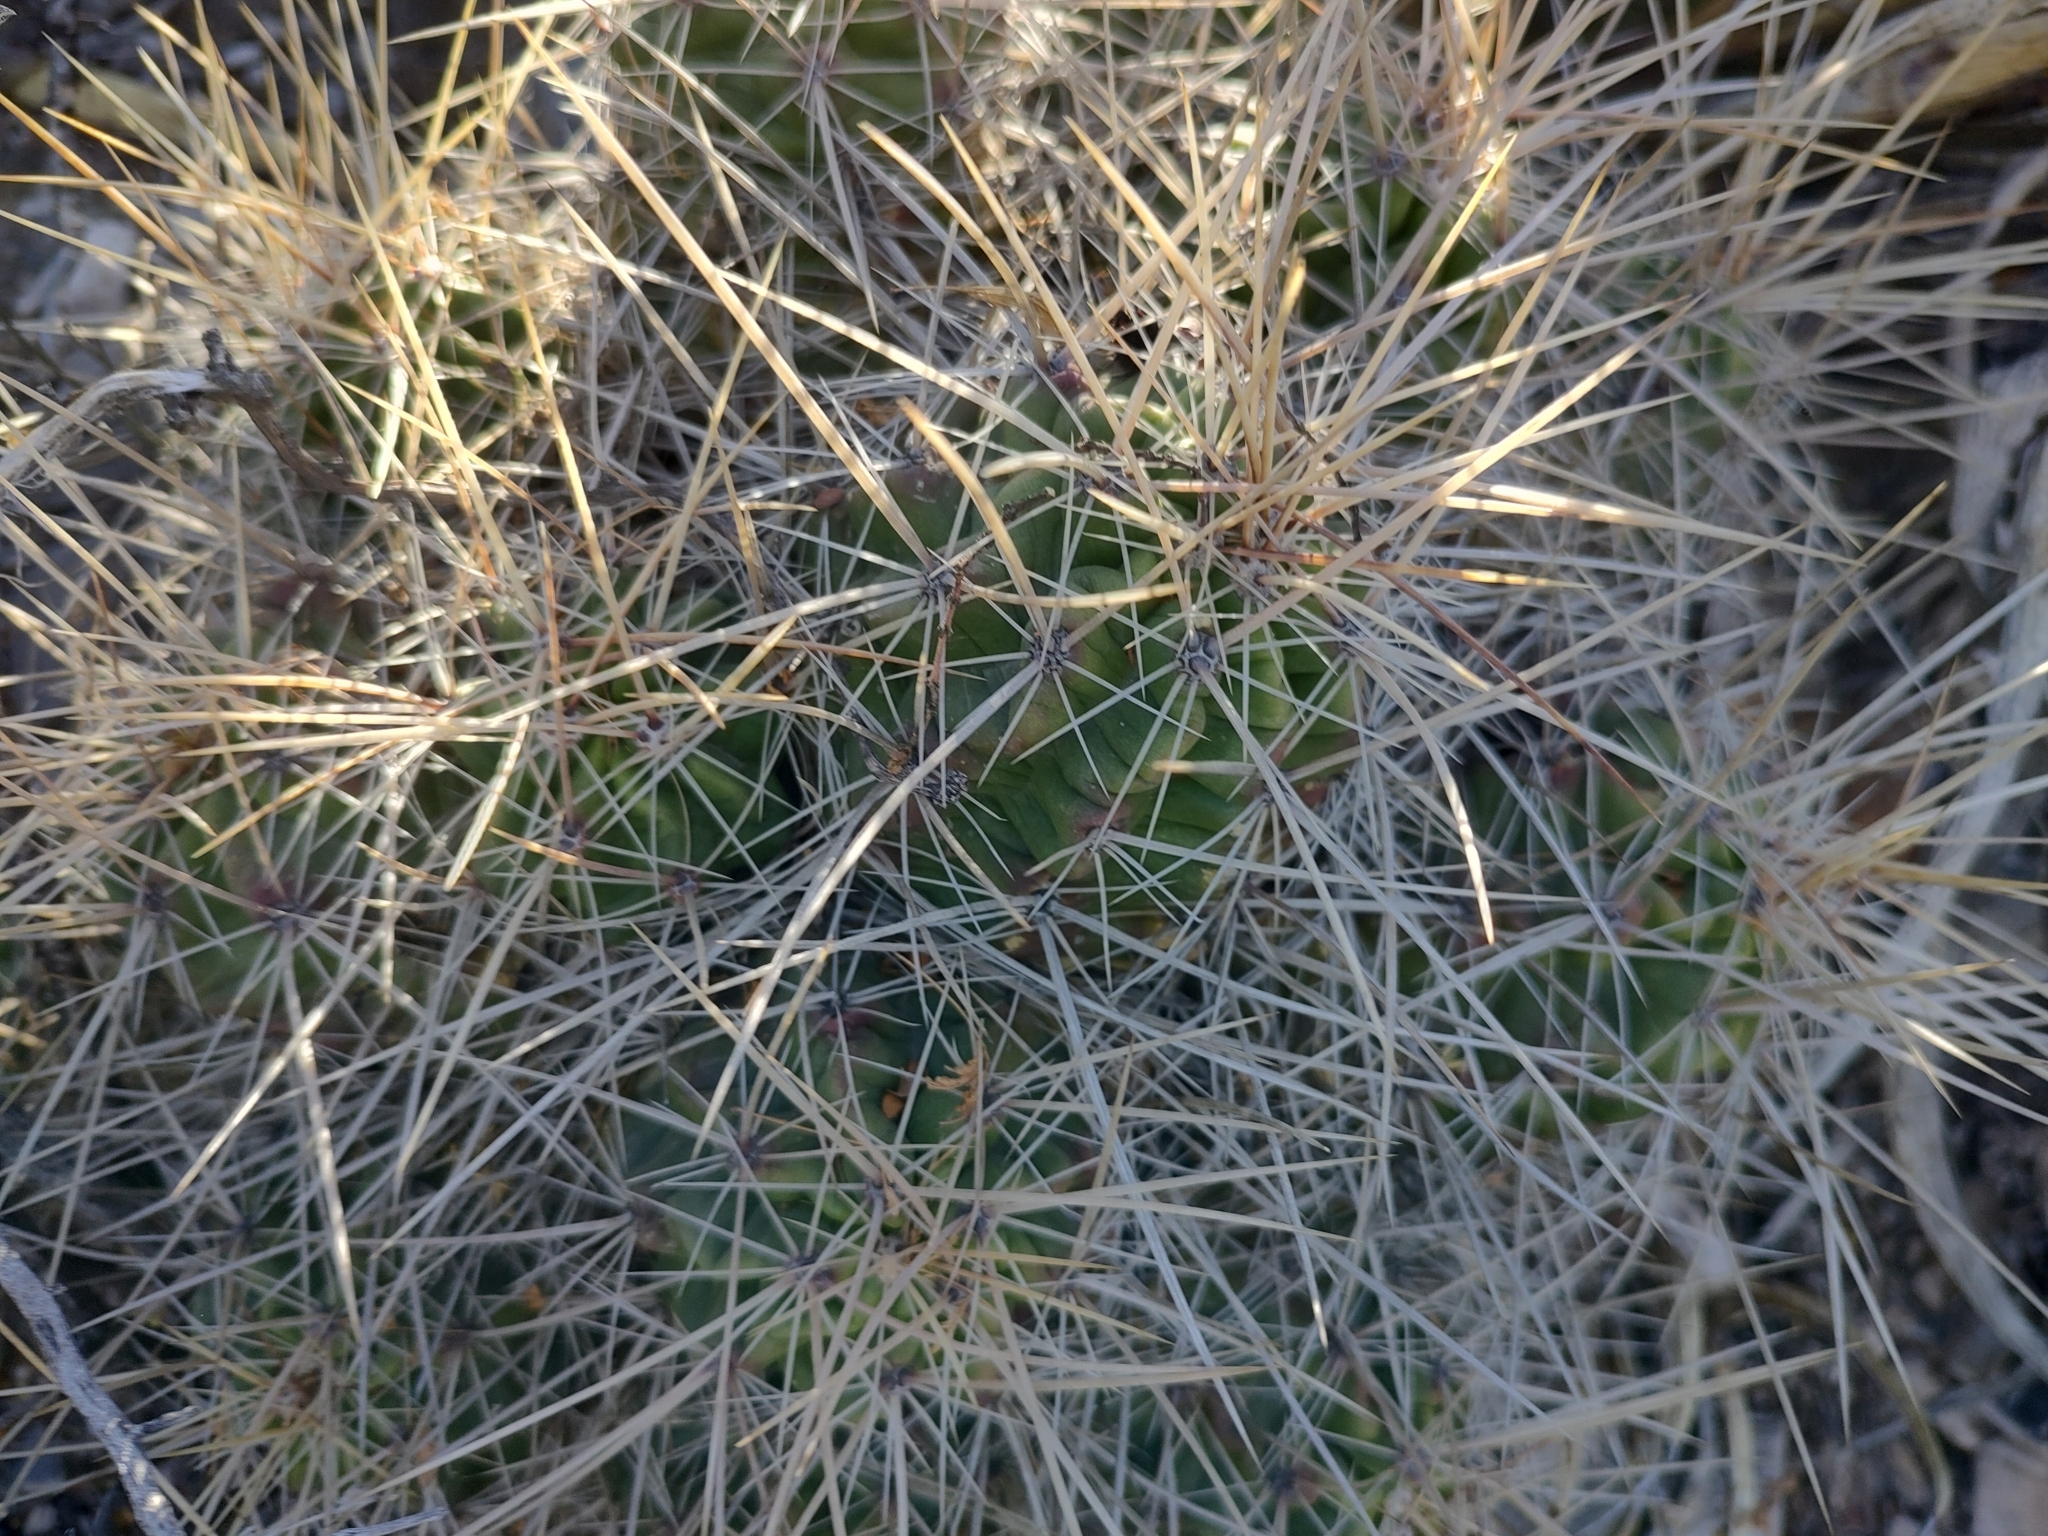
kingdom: Plantae
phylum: Tracheophyta
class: Magnoliopsida
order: Caryophyllales
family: Cactaceae
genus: Echinocereus
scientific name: Echinocereus enneacanthus
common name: Pitaya
